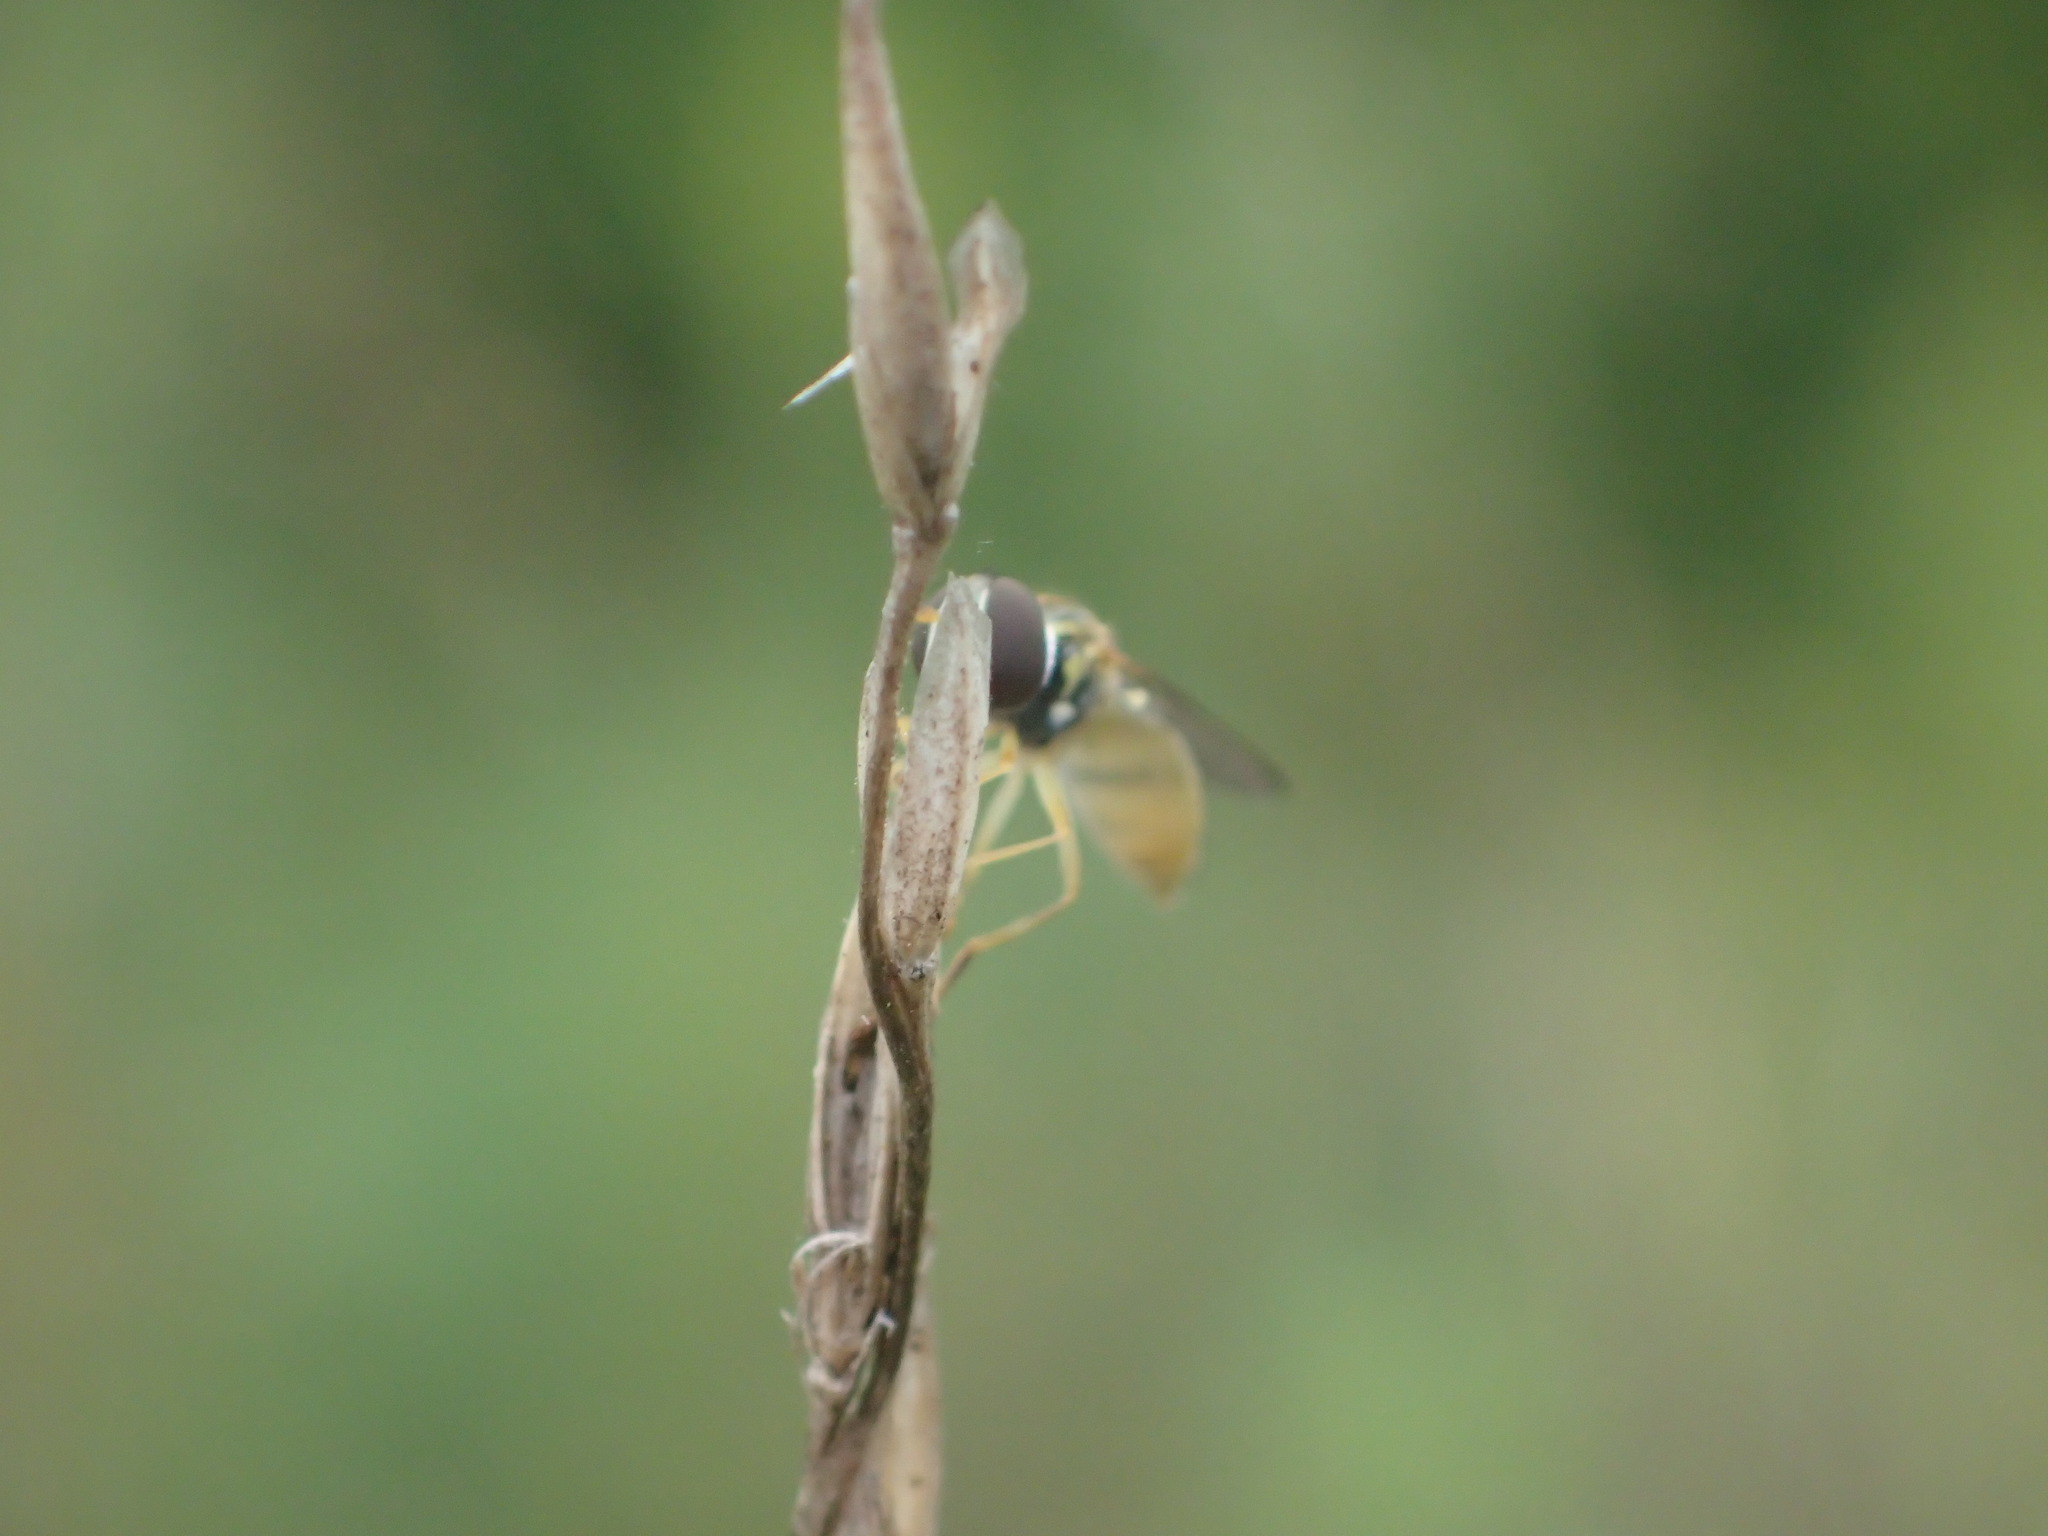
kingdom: Animalia
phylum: Arthropoda
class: Insecta
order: Diptera
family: Syrphidae
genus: Toxomerus
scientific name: Toxomerus
